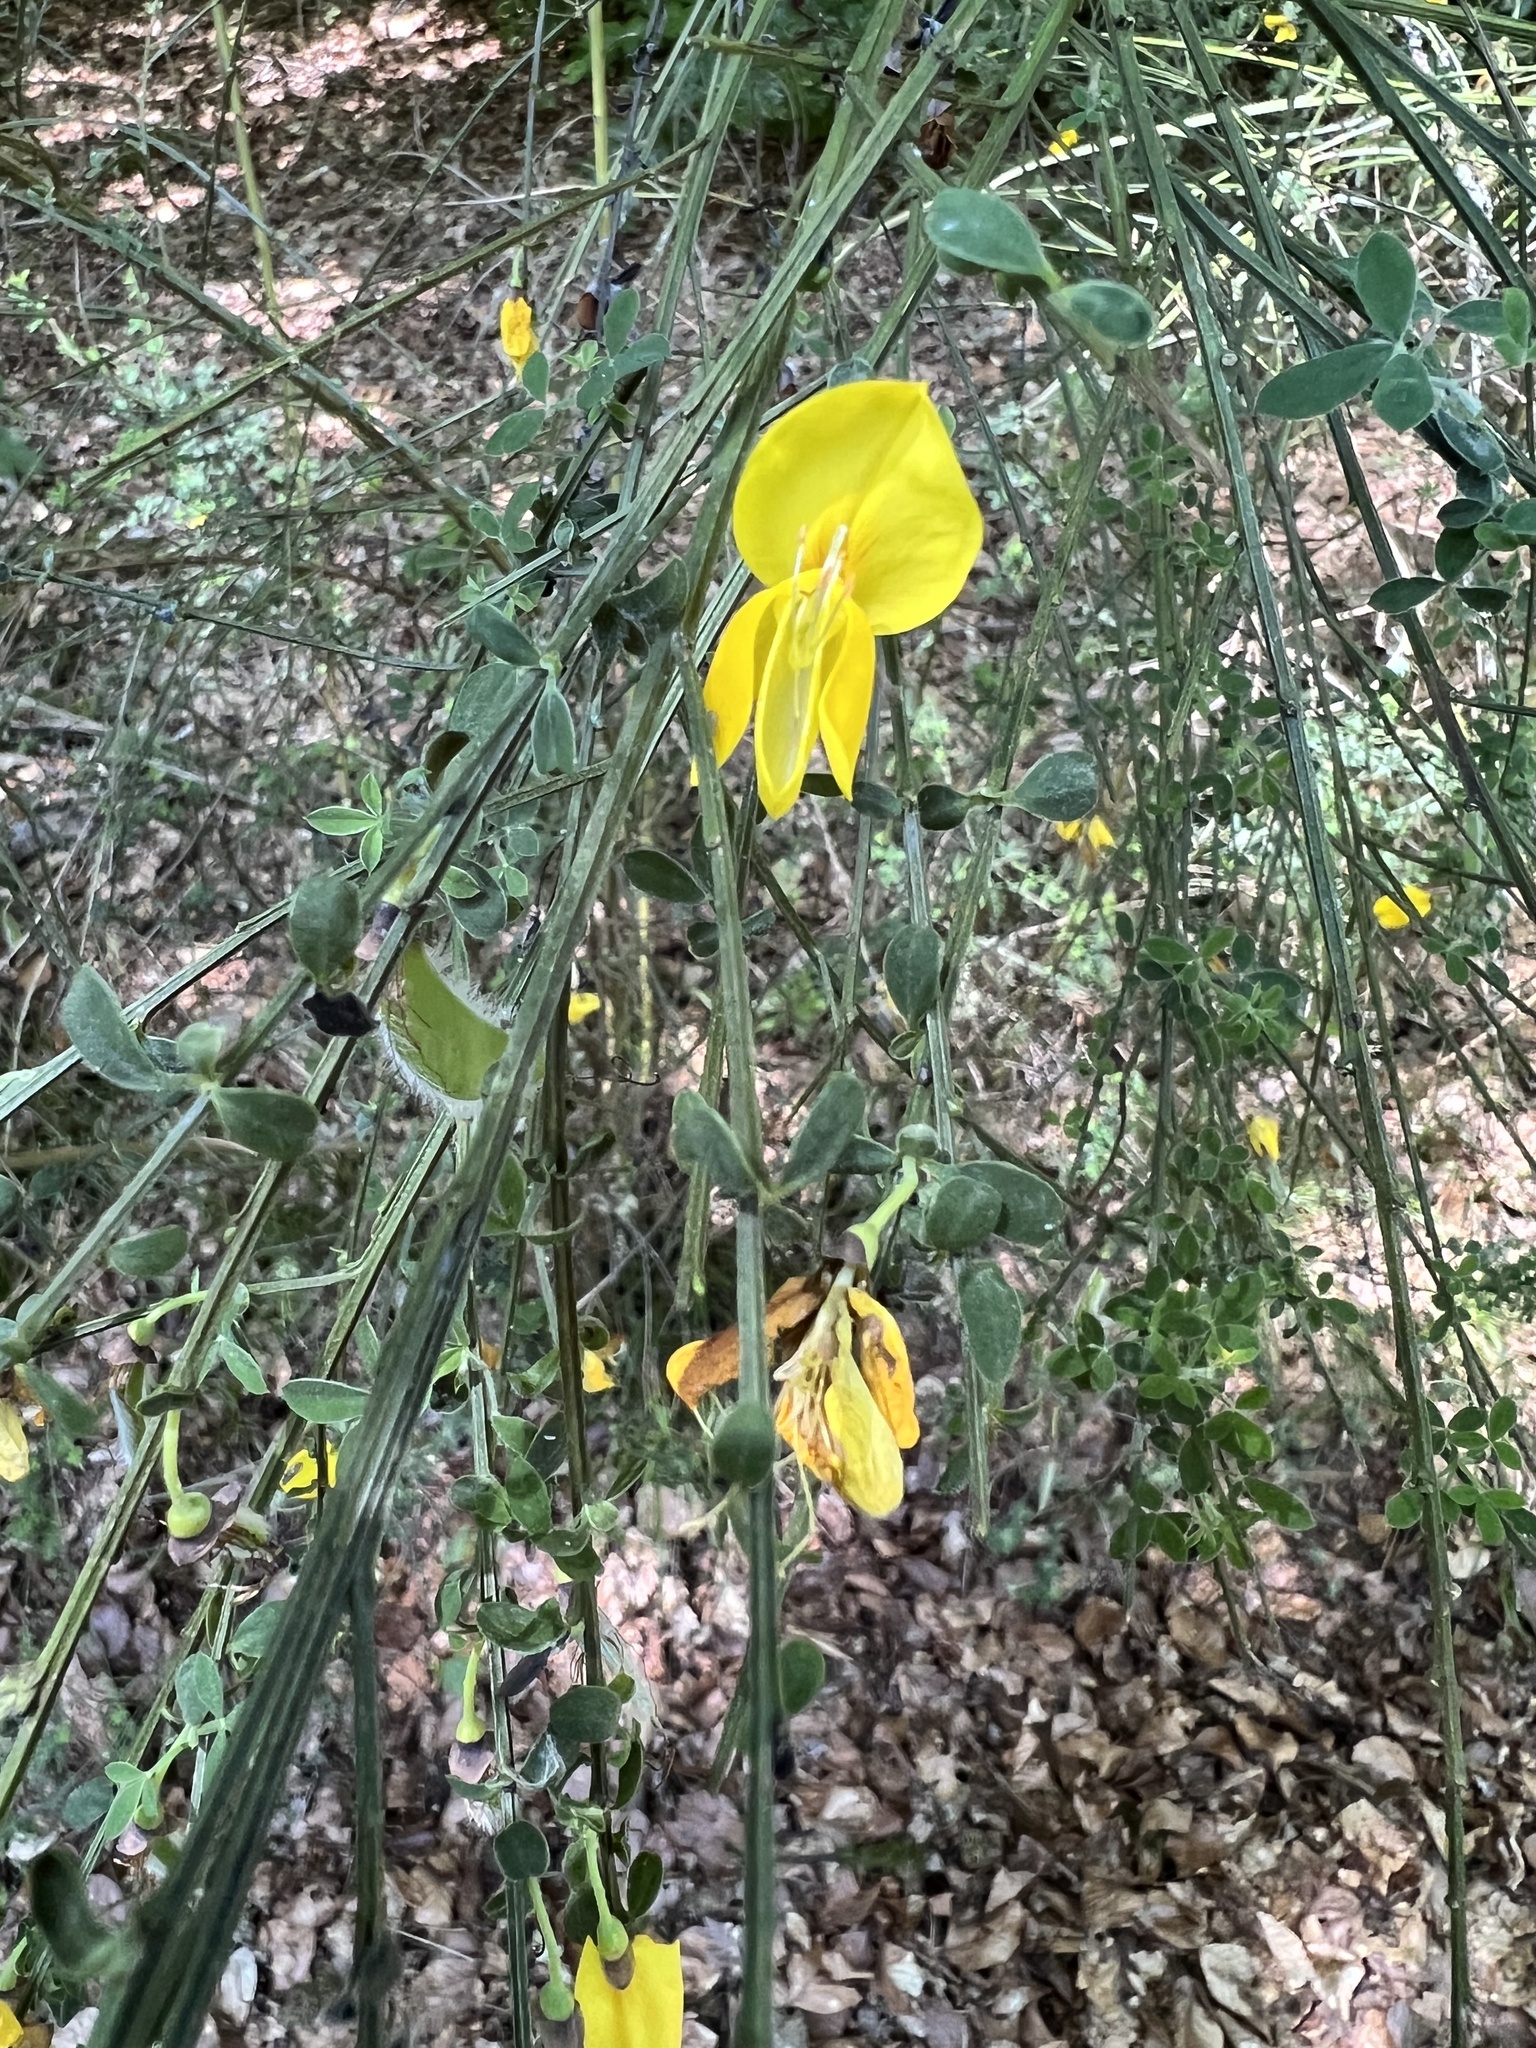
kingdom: Plantae
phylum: Tracheophyta
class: Magnoliopsida
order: Fabales
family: Fabaceae
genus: Cytisus
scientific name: Cytisus scoparius
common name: Scotch broom
